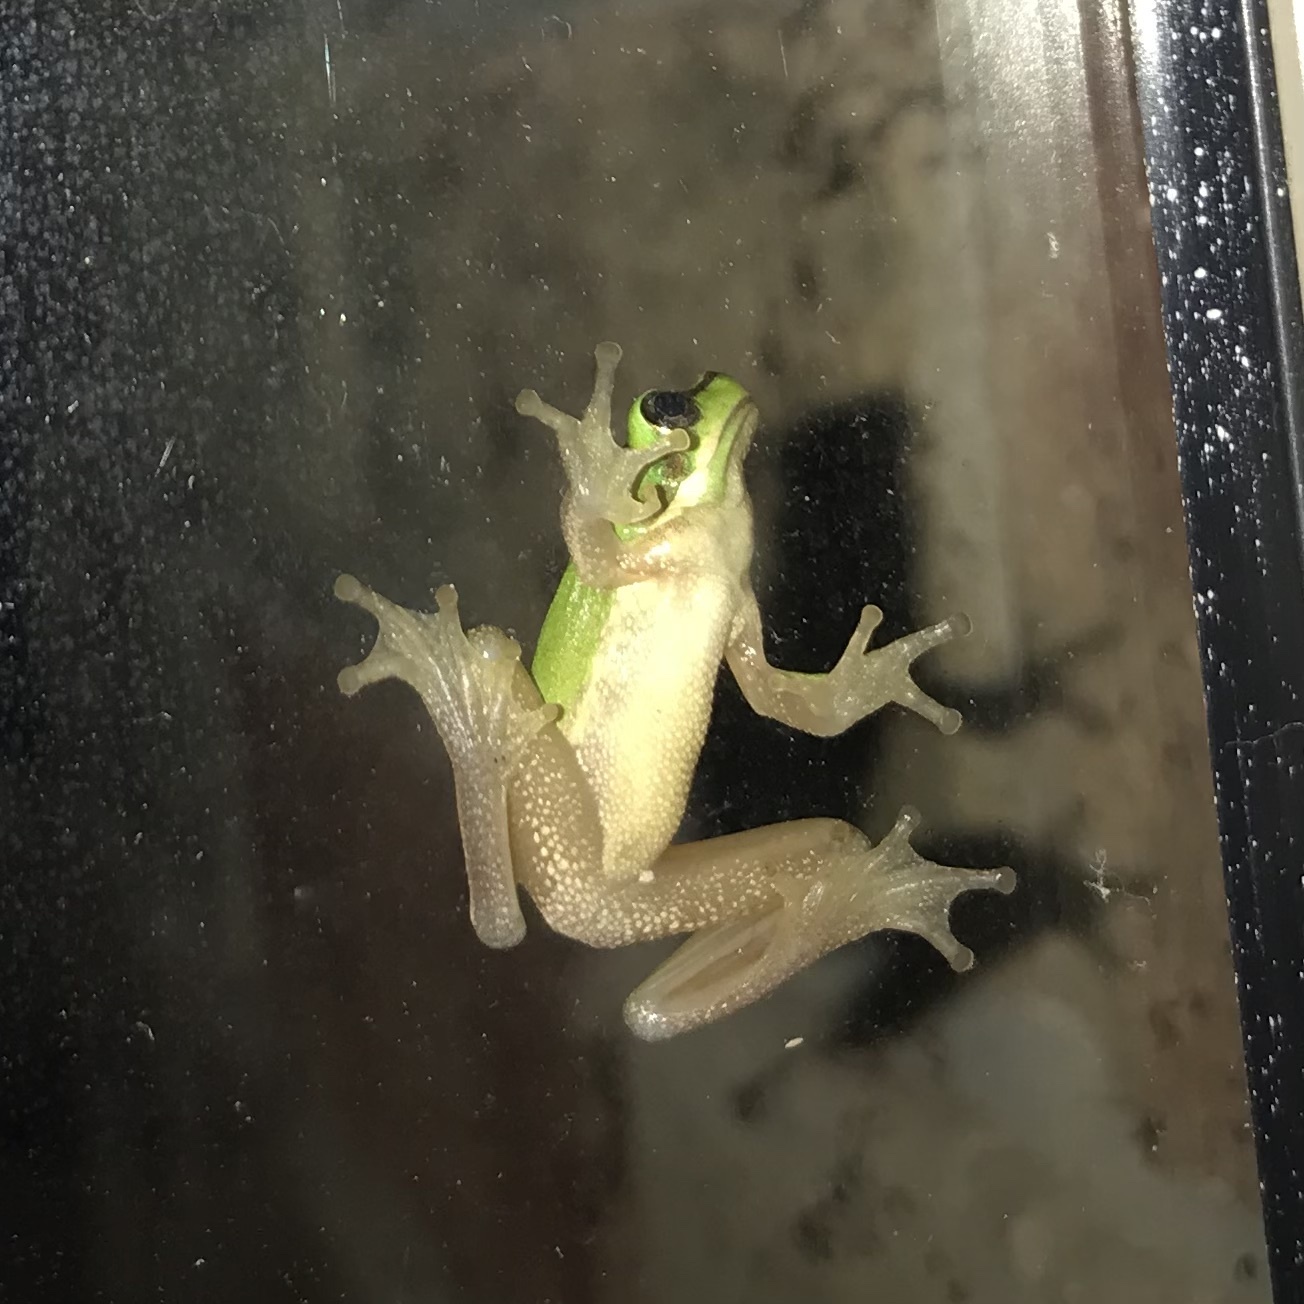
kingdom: Animalia
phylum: Chordata
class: Amphibia
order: Anura
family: Pelodryadidae
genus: Litoria
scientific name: Litoria fallax
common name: Eastern dwarf treefrog
